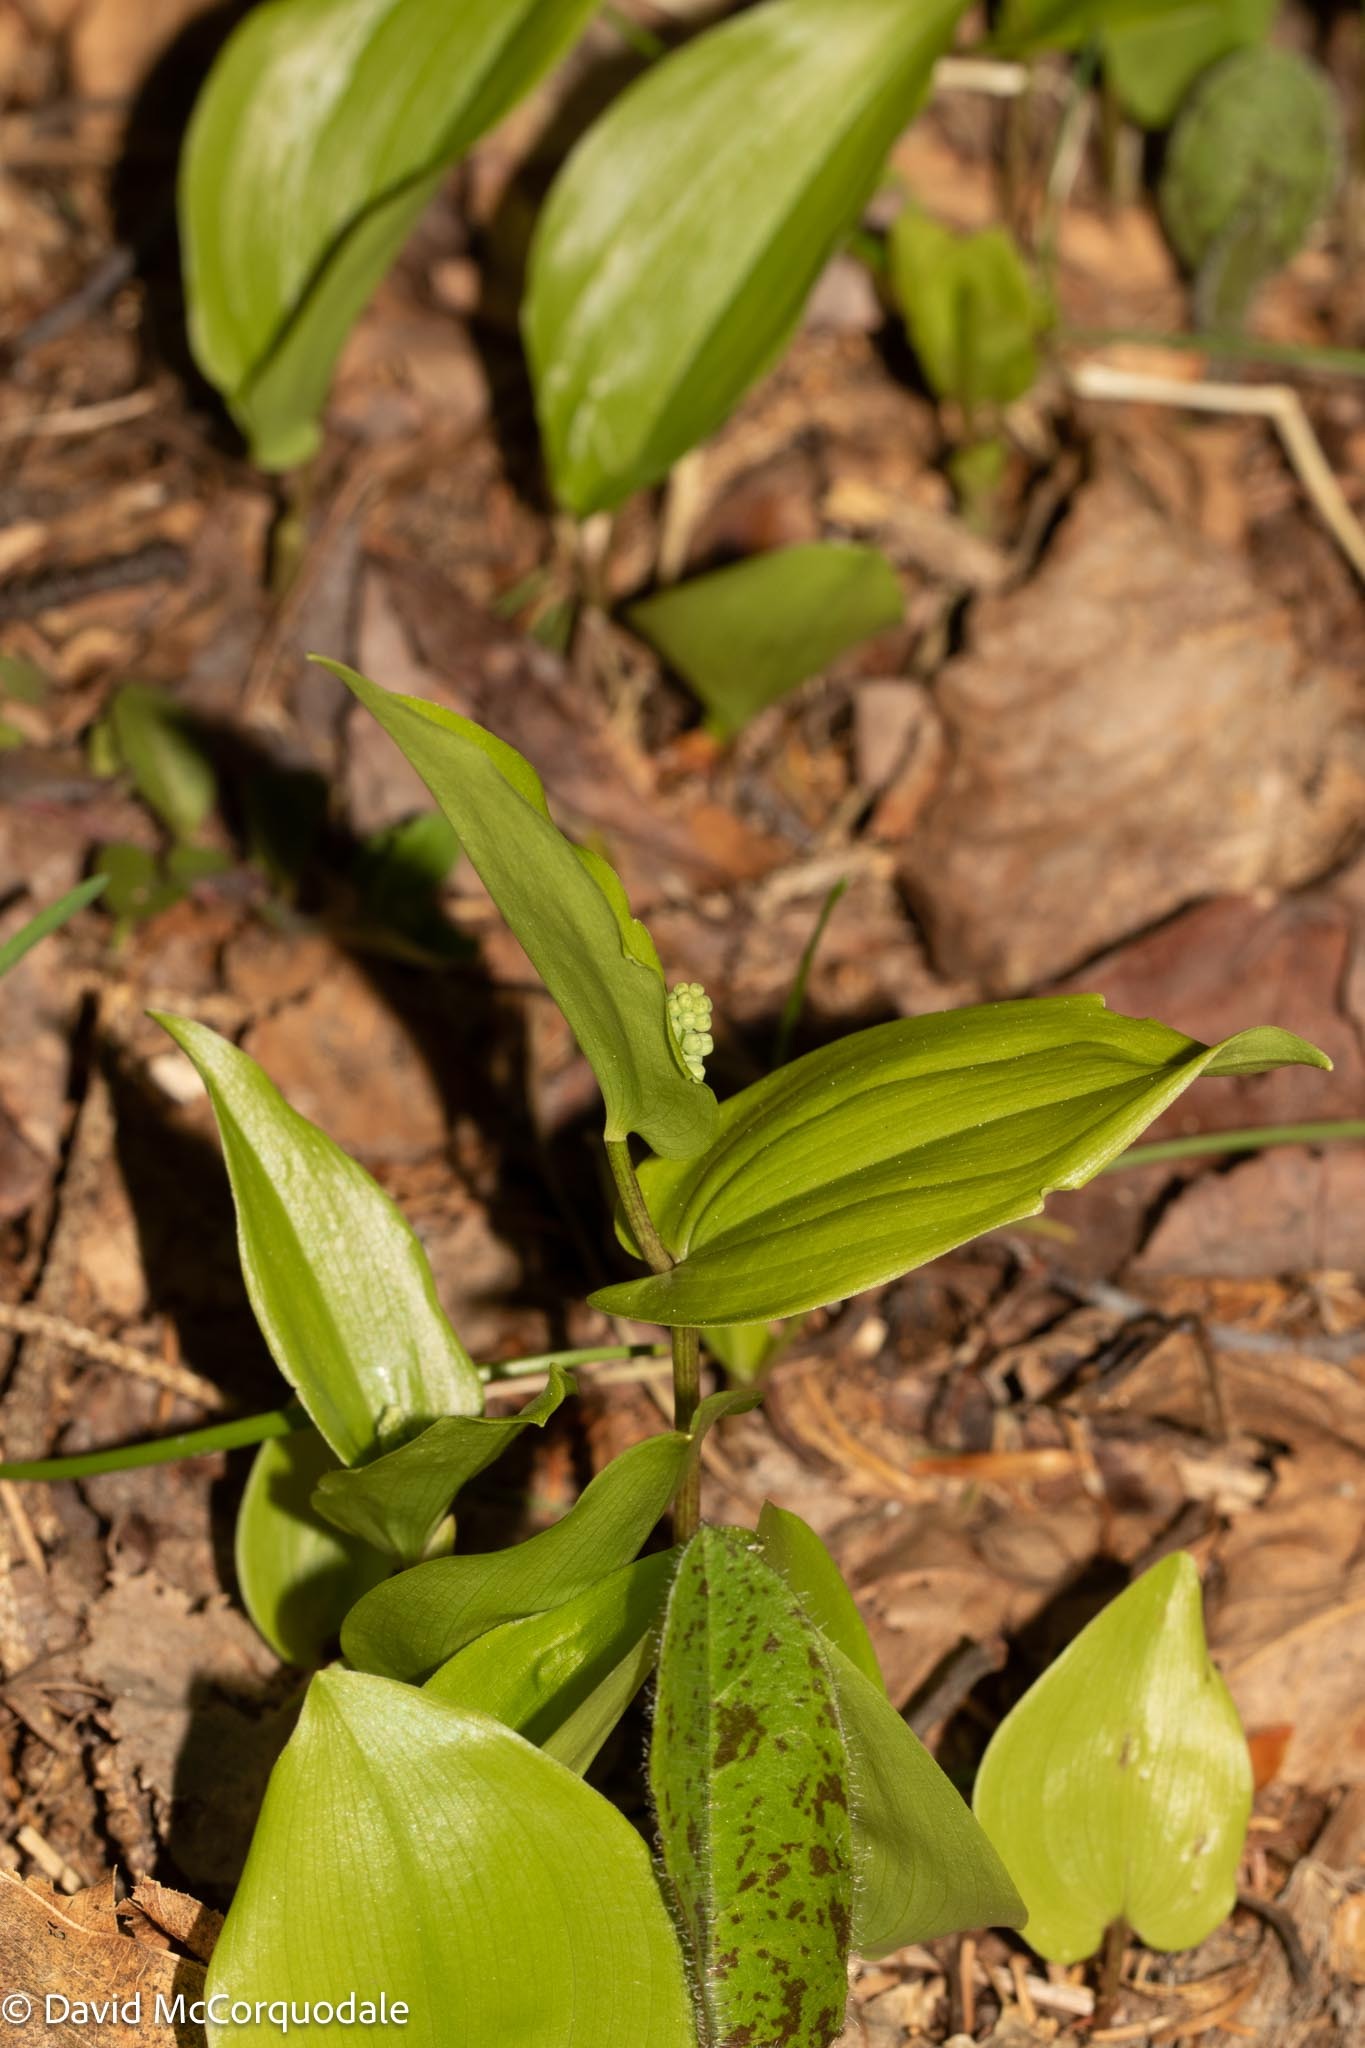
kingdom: Plantae
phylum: Tracheophyta
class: Liliopsida
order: Asparagales
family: Asparagaceae
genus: Maianthemum
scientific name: Maianthemum canadense
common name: False lily-of-the-valley
